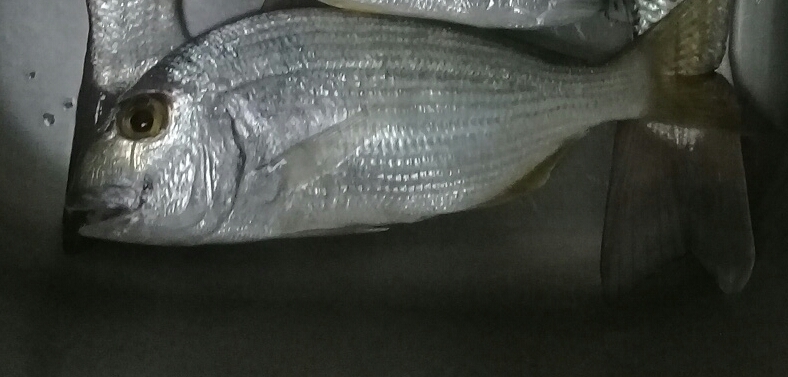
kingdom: Animalia
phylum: Chordata
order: Perciformes
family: Sparidae
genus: Rhabdosargus
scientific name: Rhabdosargus haffara
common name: Haffara seabream
